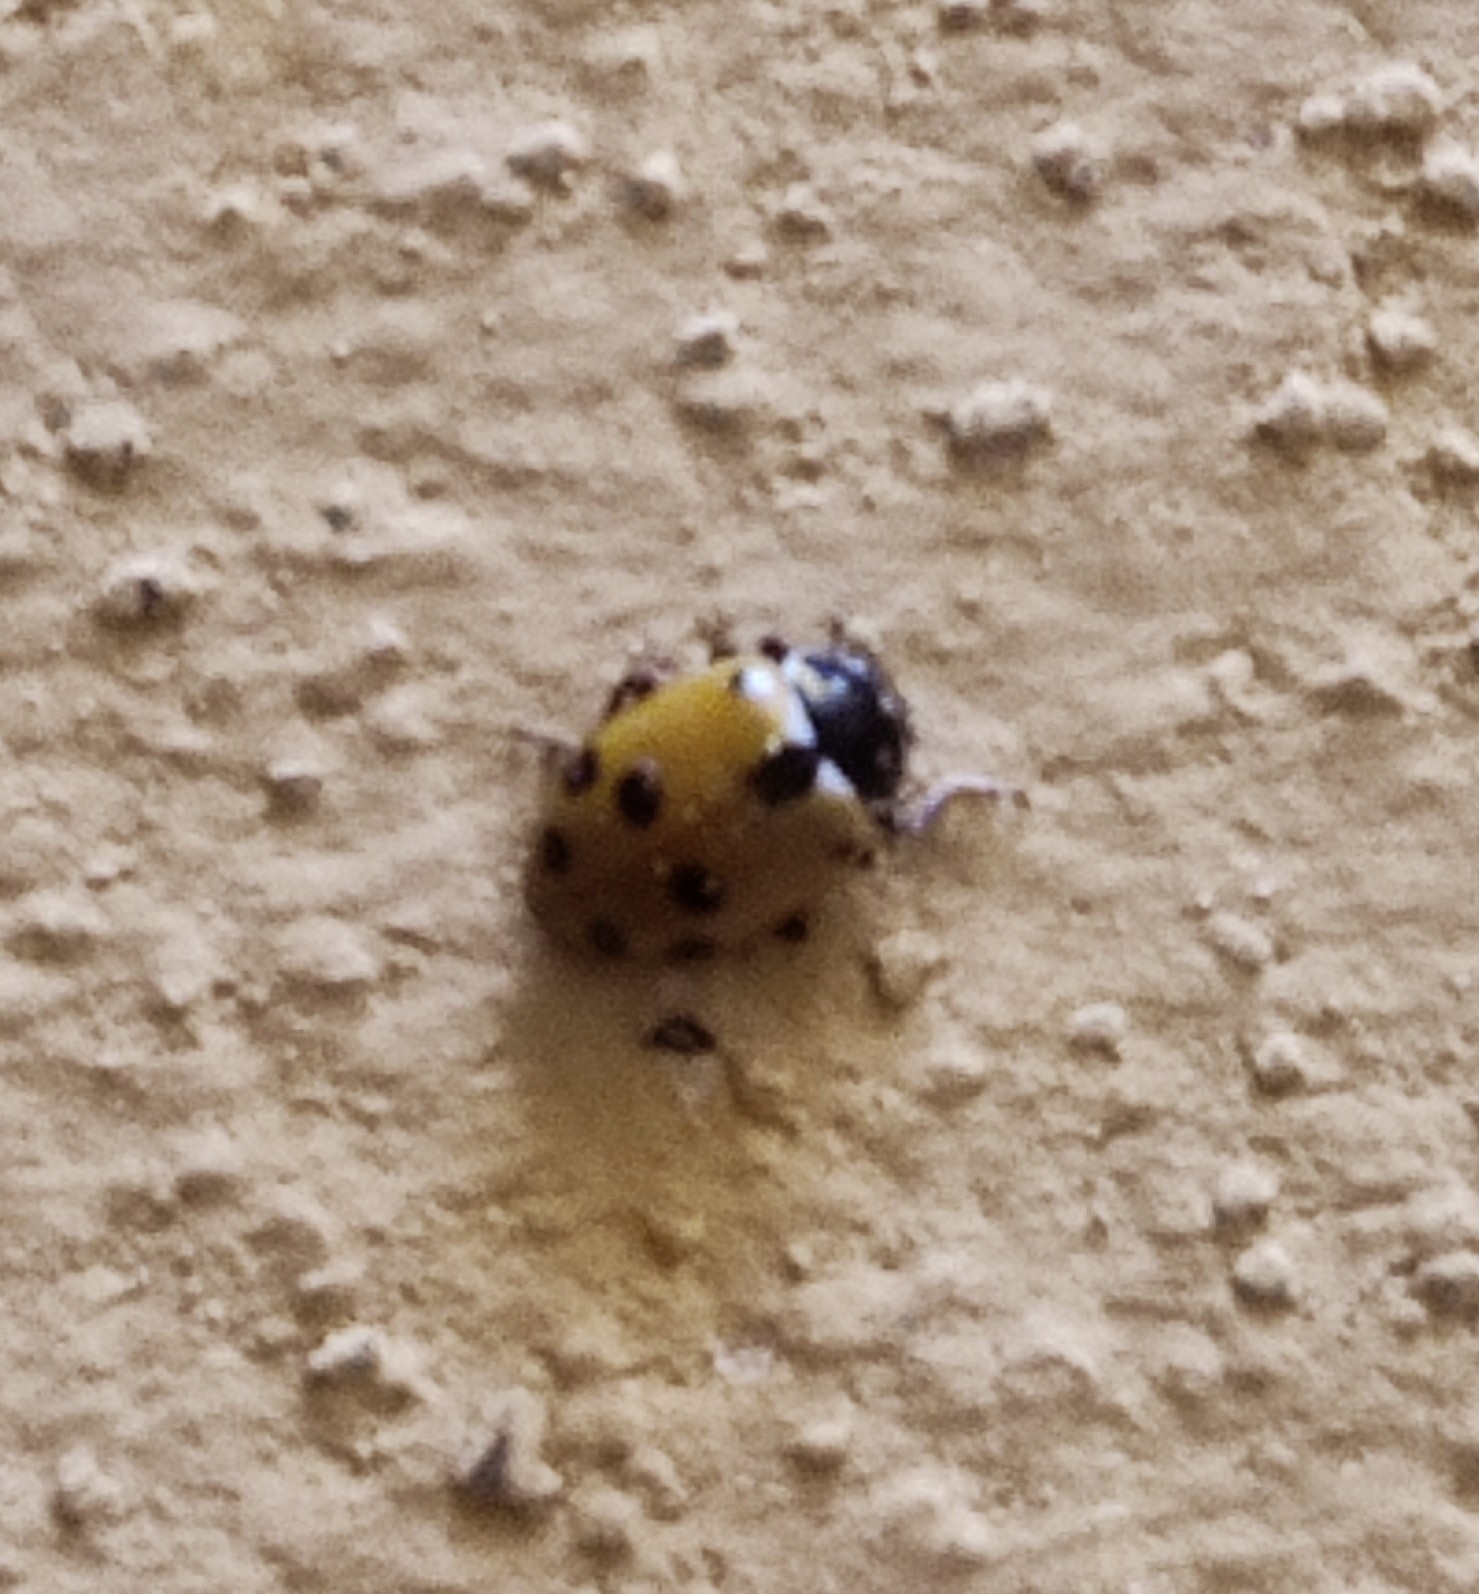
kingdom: Animalia
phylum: Arthropoda
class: Insecta
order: Coleoptera
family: Coccinellidae
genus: Hippodamia
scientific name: Hippodamia variegata
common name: Ladybird beetle
